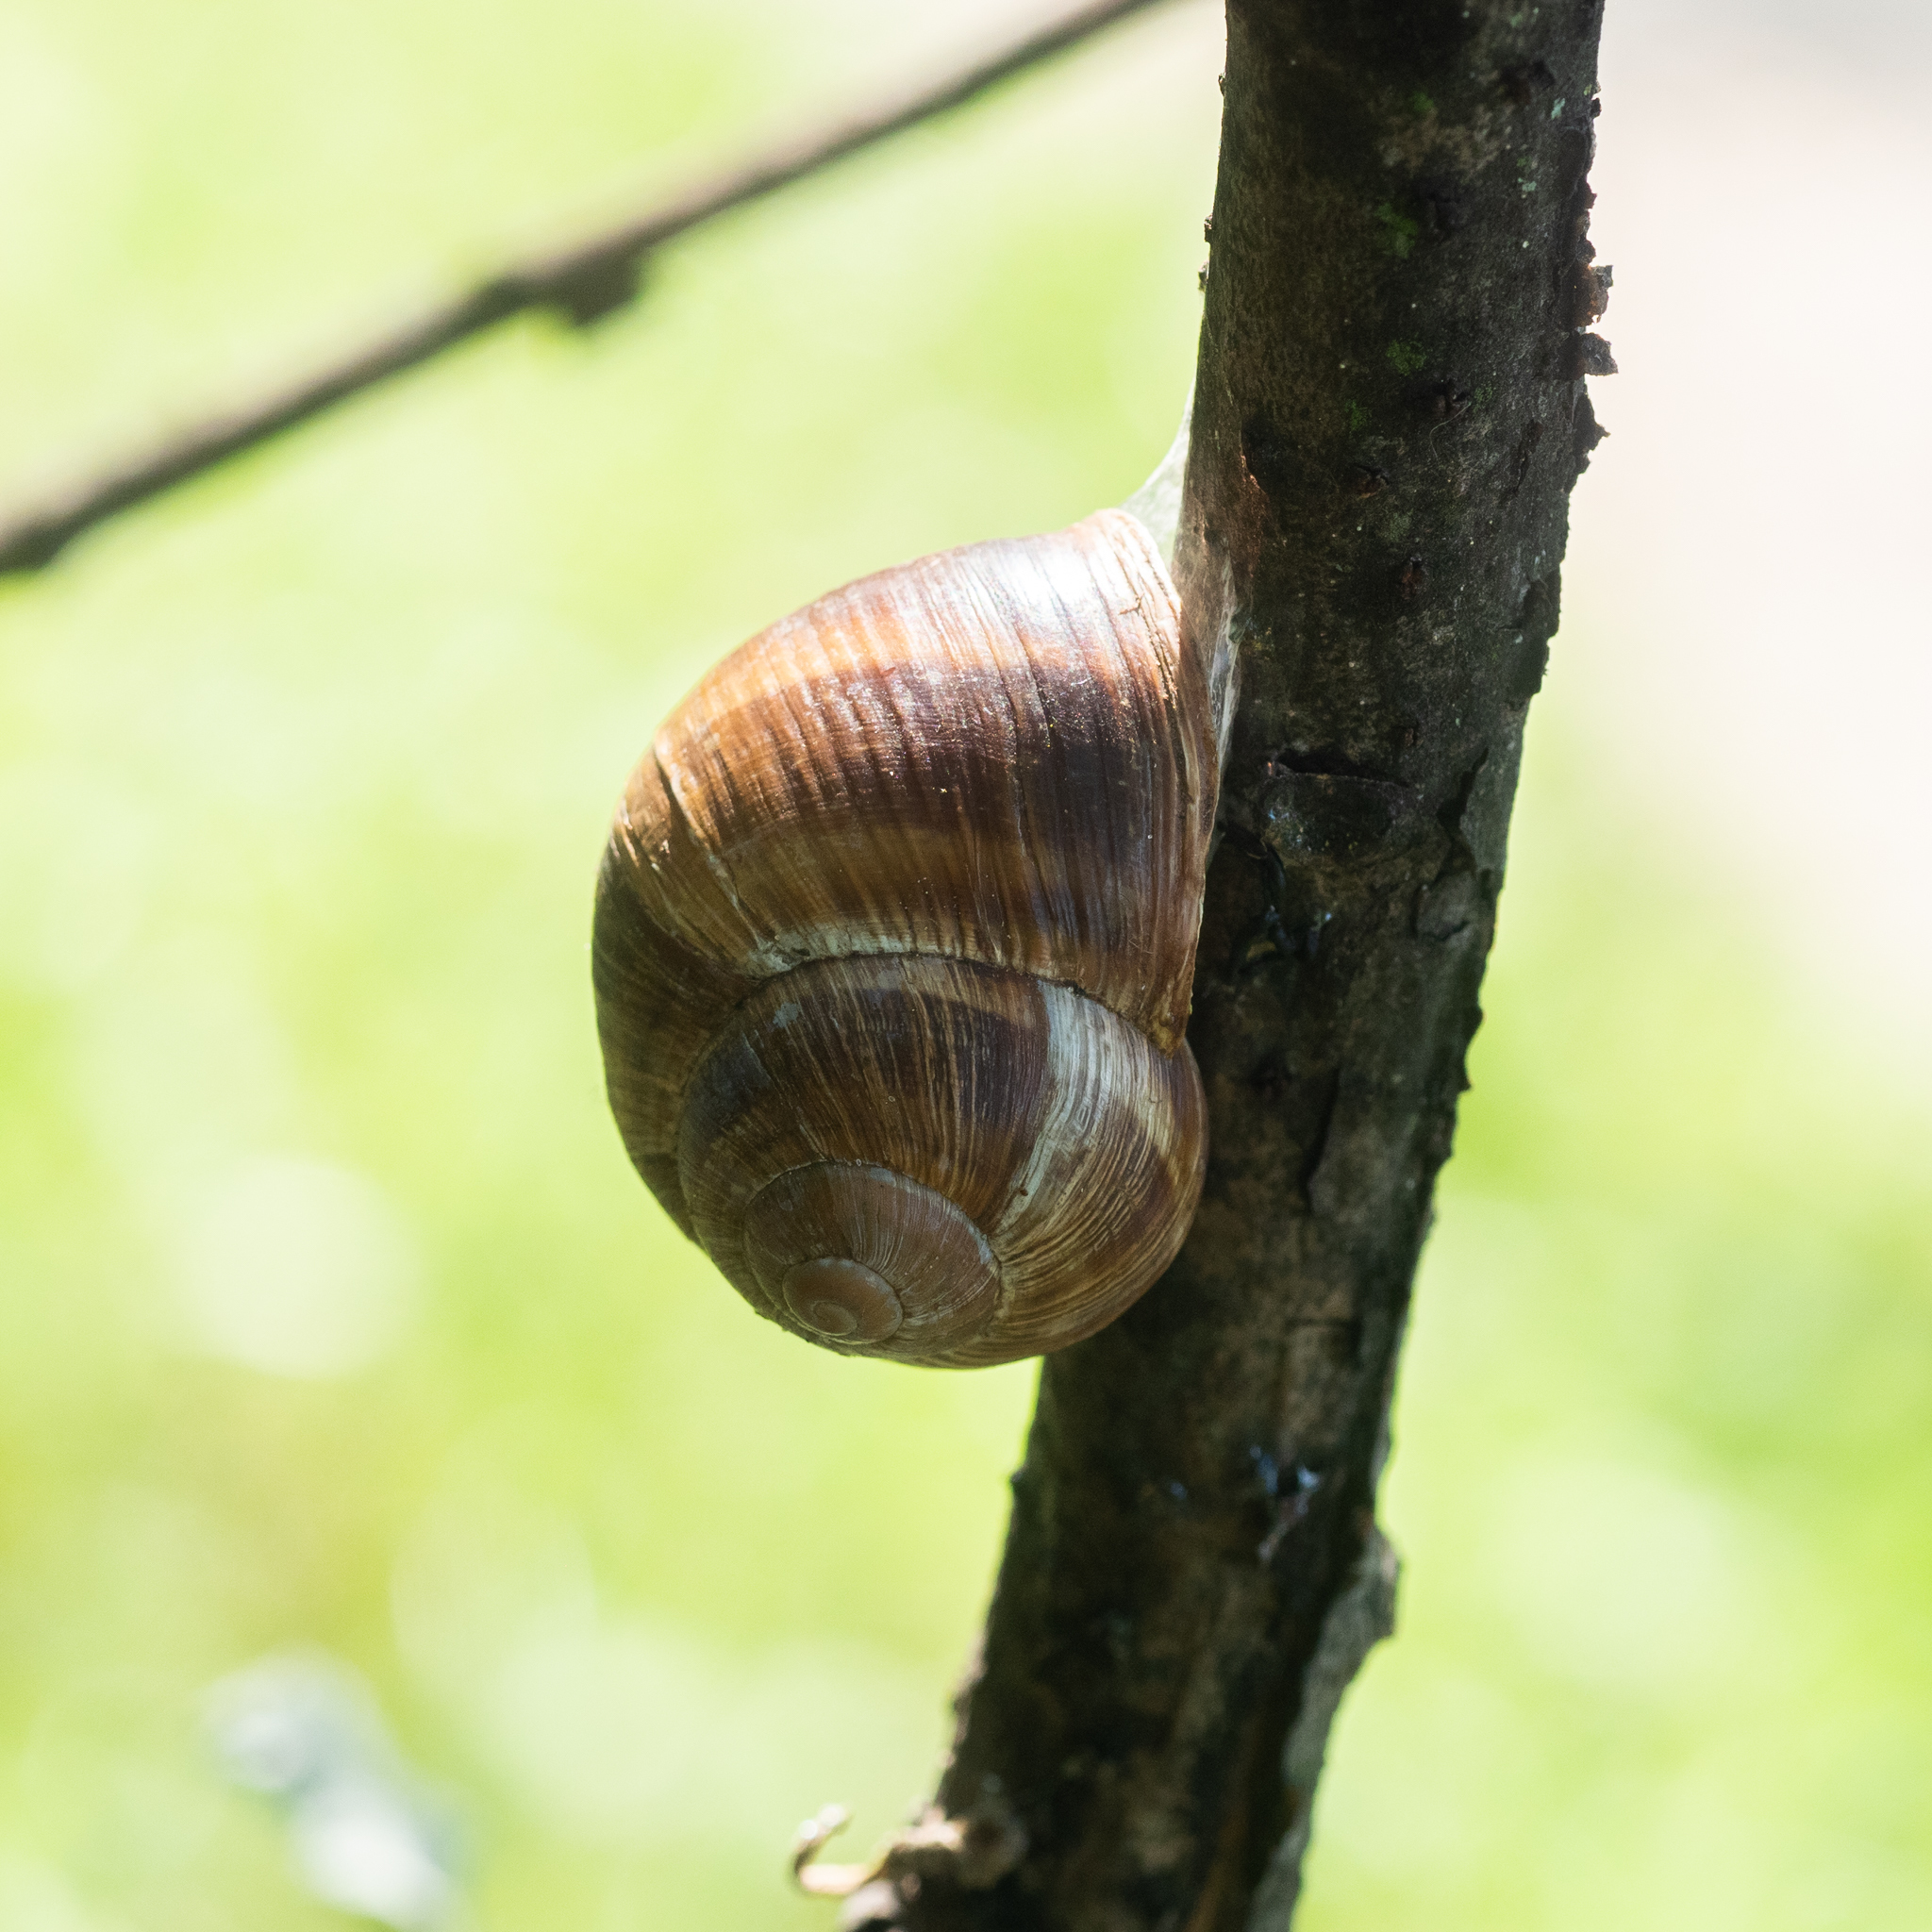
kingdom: Animalia
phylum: Mollusca
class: Gastropoda
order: Stylommatophora
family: Helicidae
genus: Helix
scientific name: Helix pomatia
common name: Roman snail
